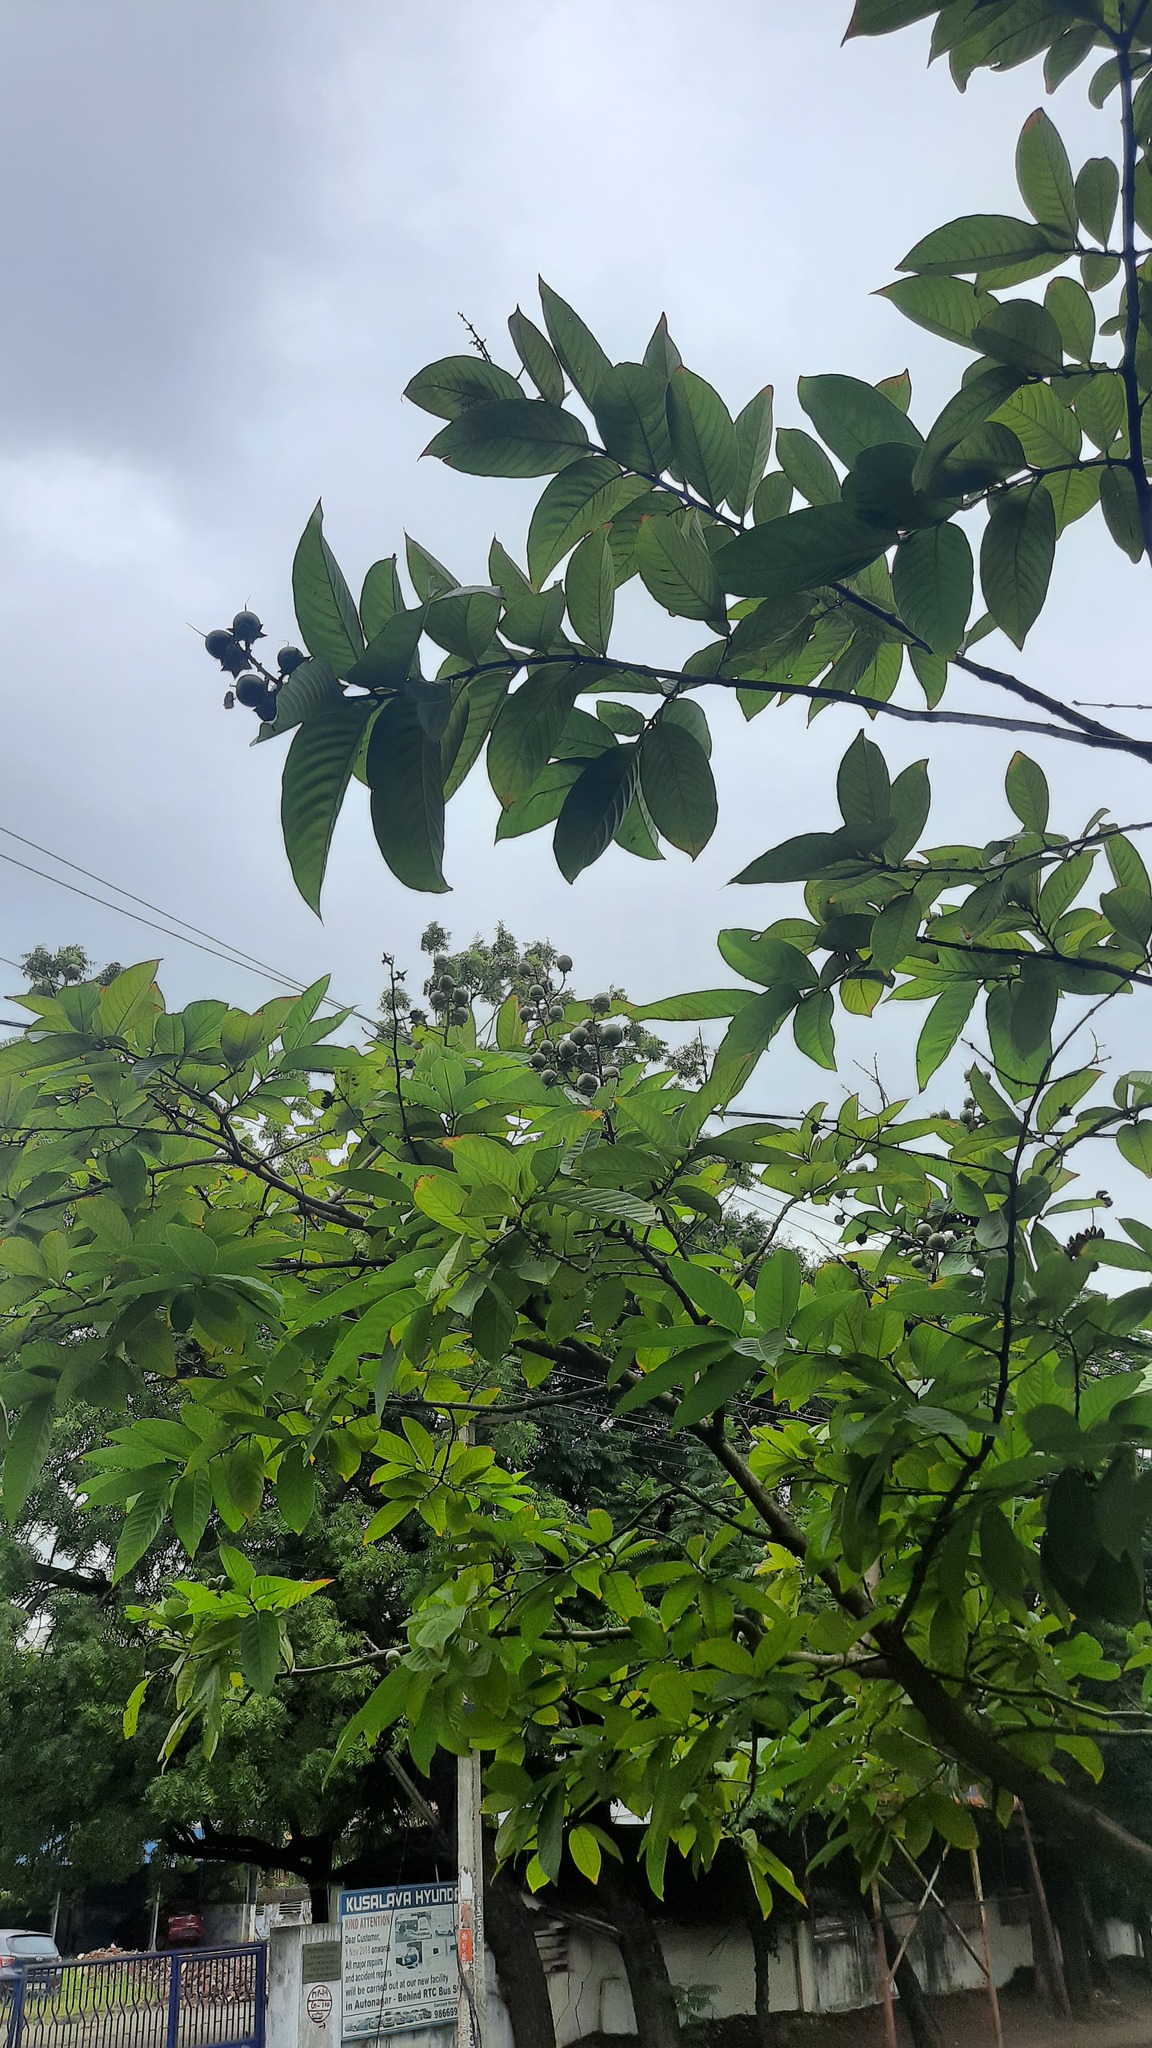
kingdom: Plantae
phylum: Tracheophyta
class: Magnoliopsida
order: Myrtales
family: Lythraceae
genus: Lagerstroemia
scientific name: Lagerstroemia speciosa
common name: Queen's crape-myrtle
